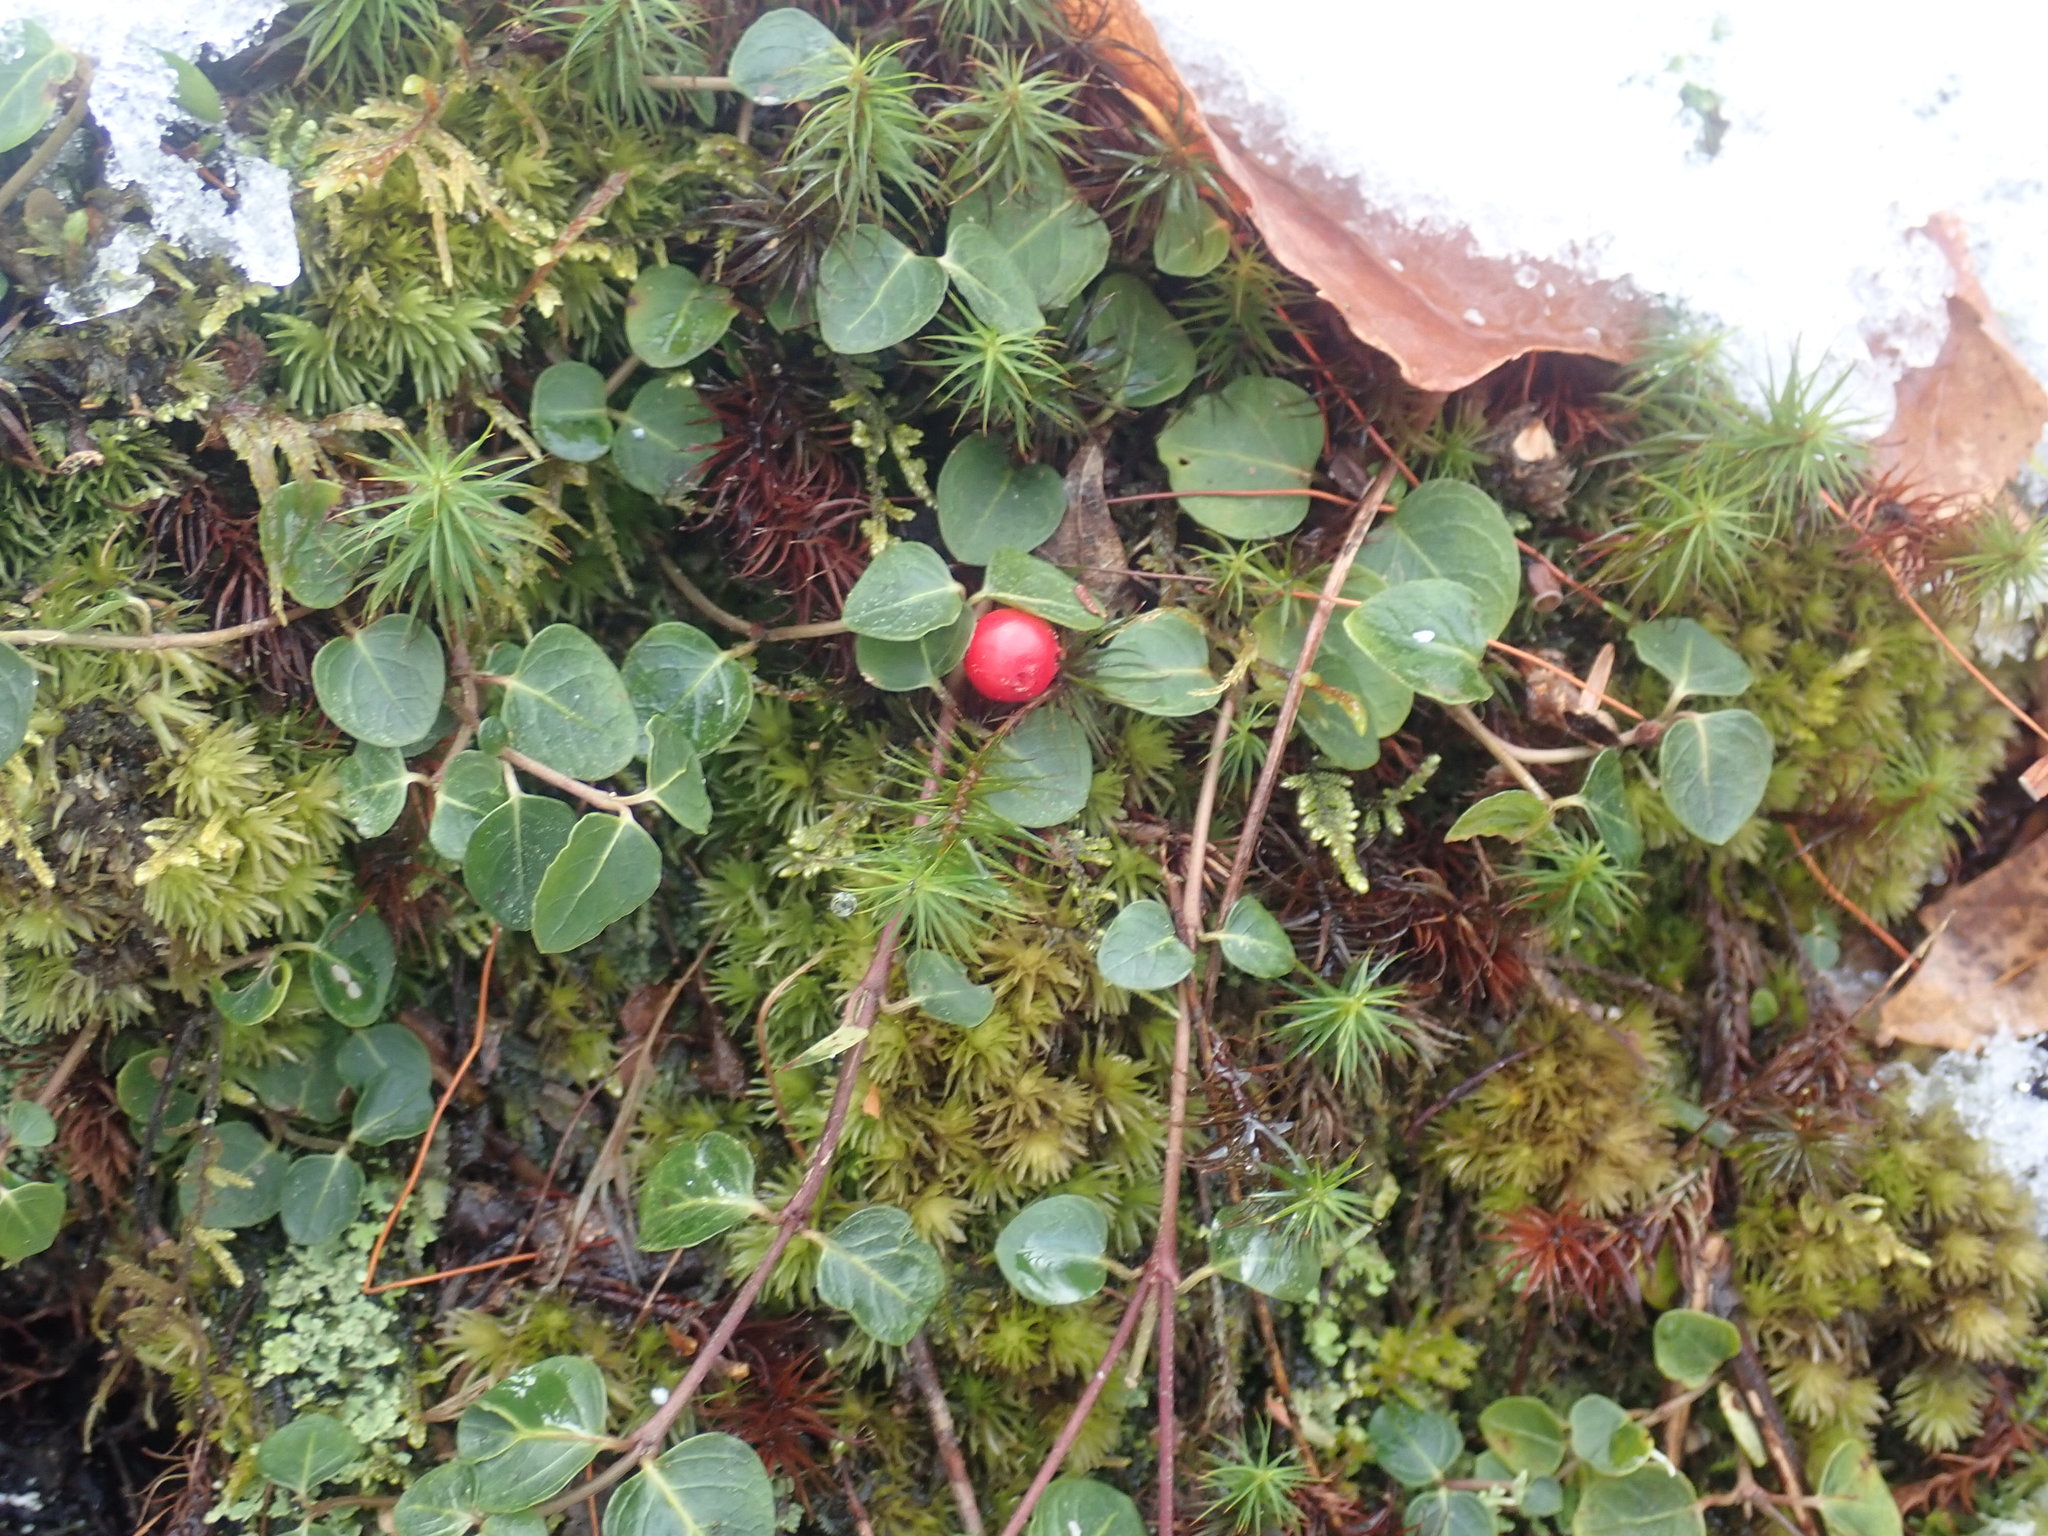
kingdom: Plantae
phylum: Tracheophyta
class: Magnoliopsida
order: Gentianales
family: Rubiaceae
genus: Mitchella
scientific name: Mitchella repens
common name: Partridge-berry
